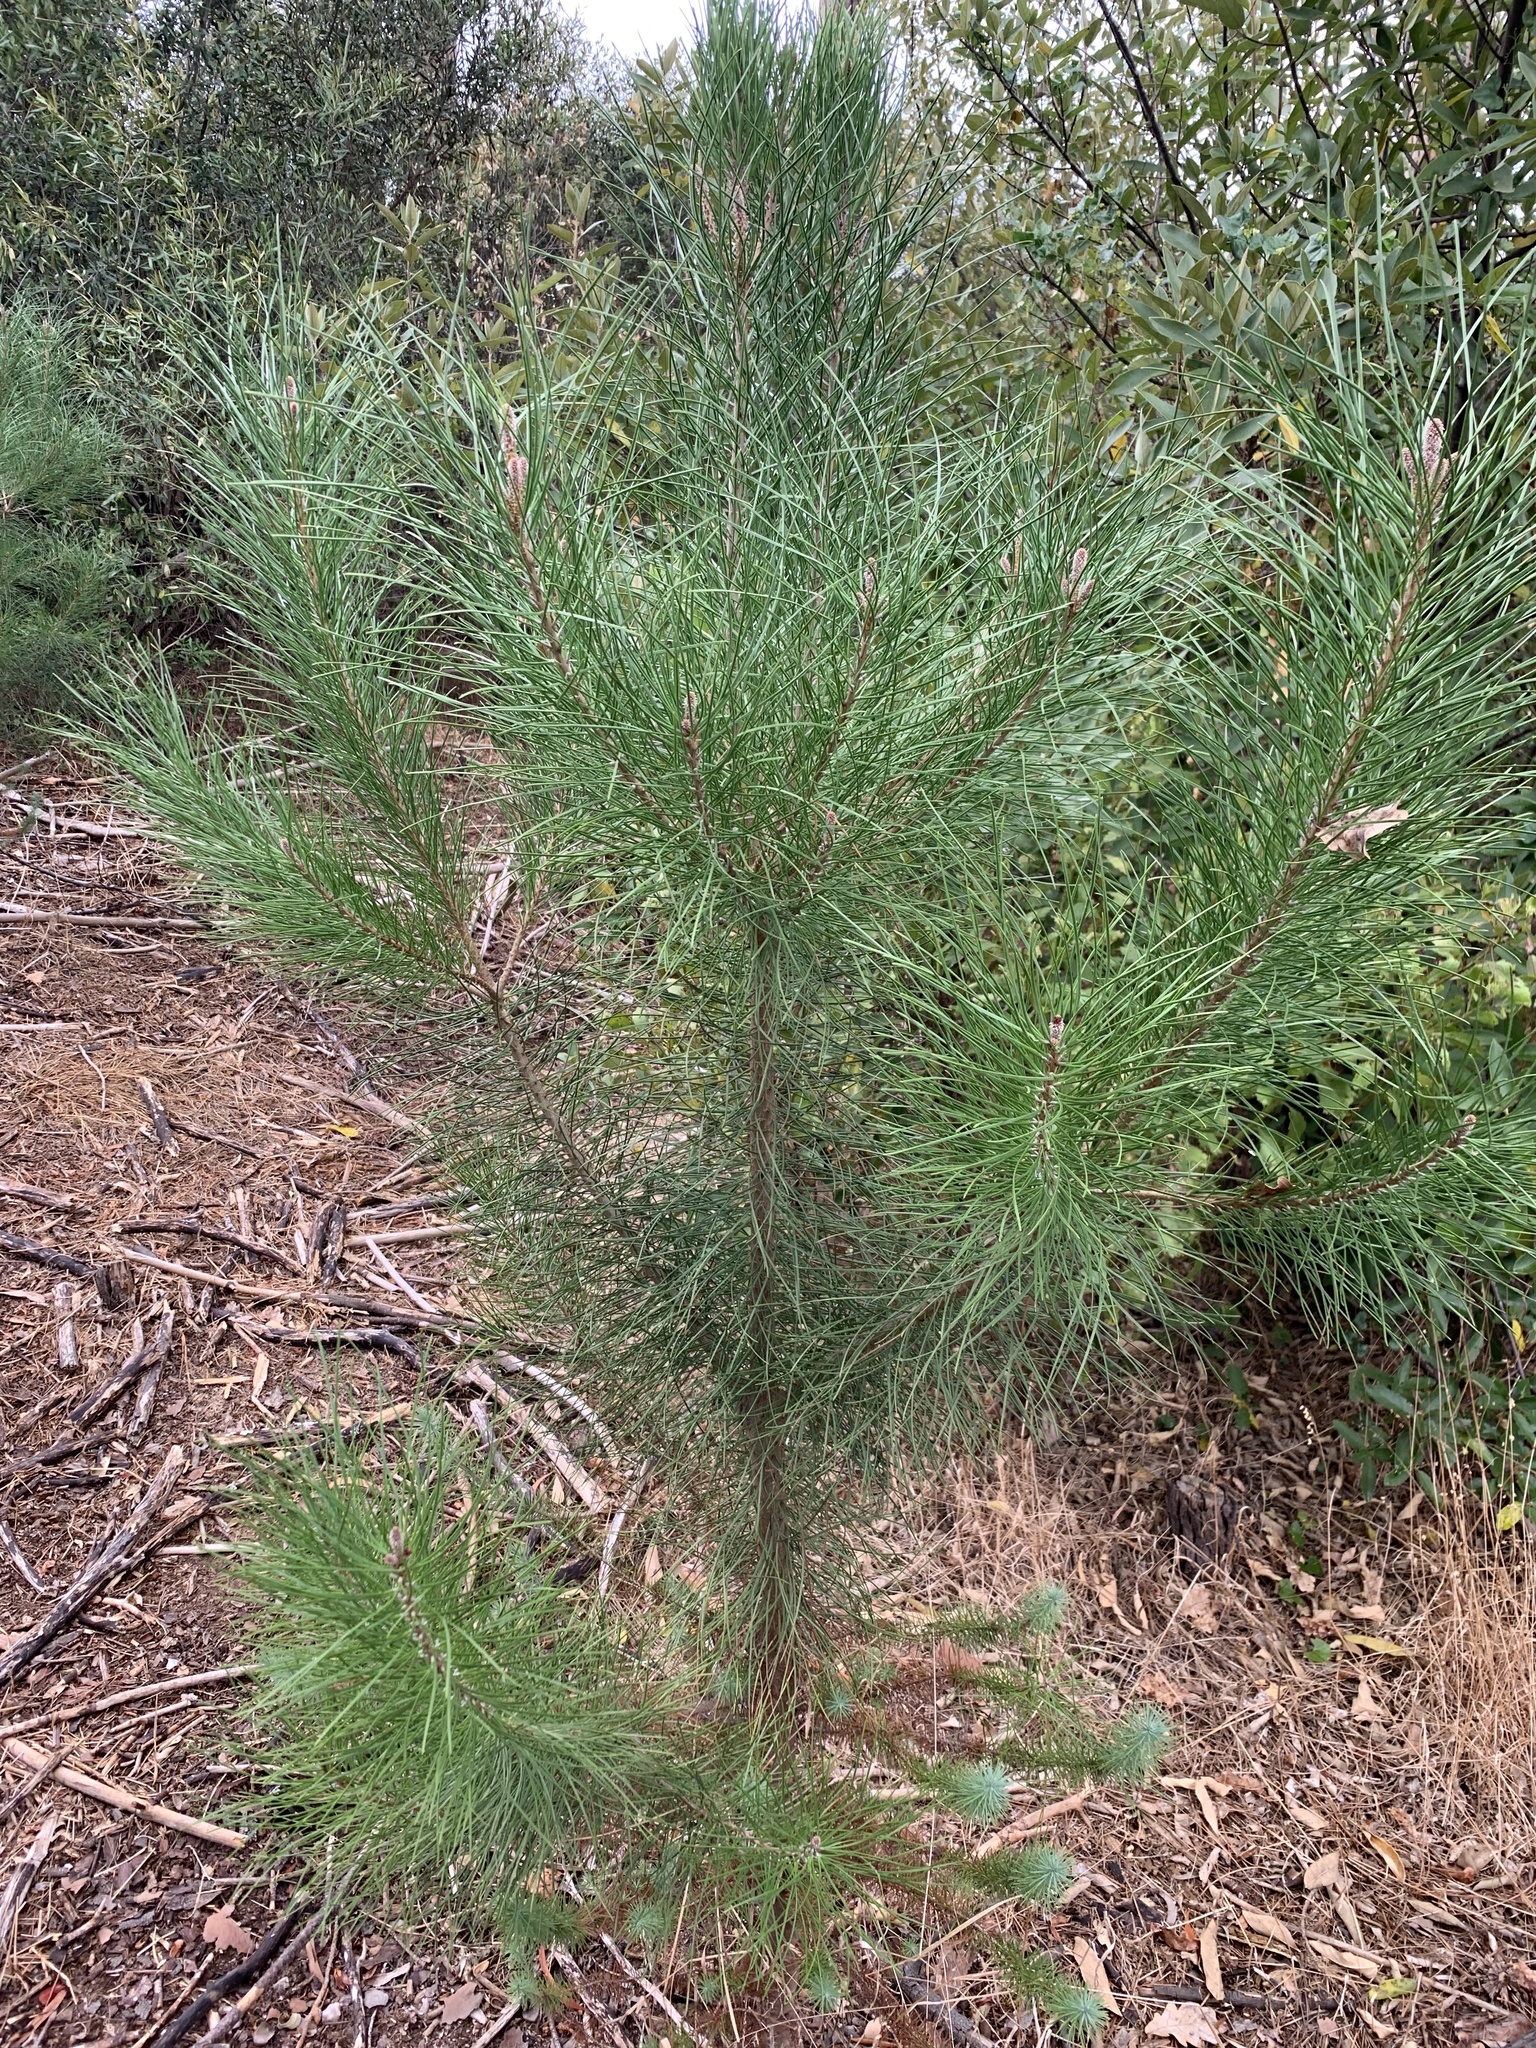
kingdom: Plantae
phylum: Tracheophyta
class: Pinopsida
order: Pinales
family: Pinaceae
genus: Pinus
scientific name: Pinus pinaster
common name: Maritime pine
